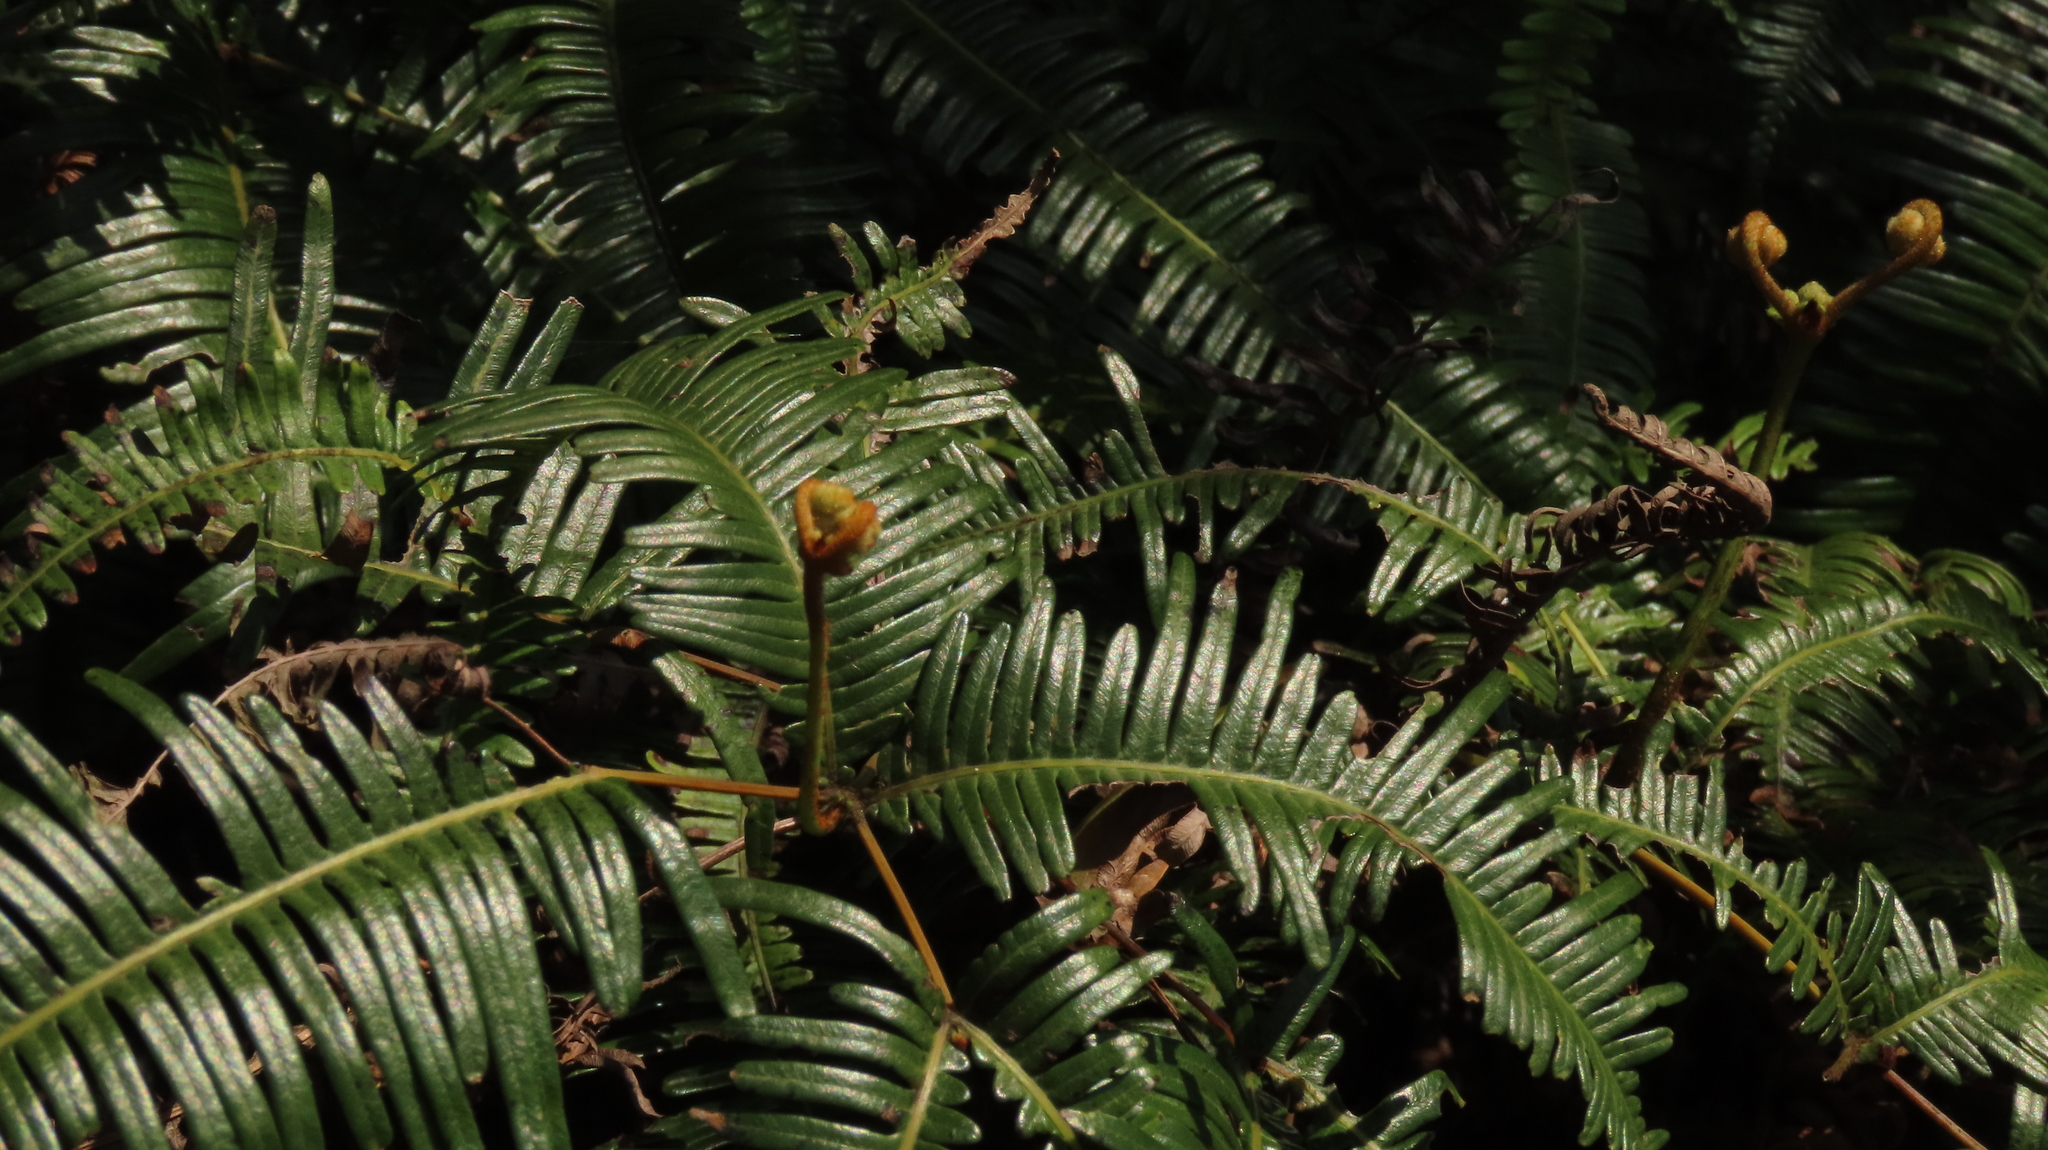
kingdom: Plantae
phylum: Tracheophyta
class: Polypodiopsida
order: Gleicheniales
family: Gleicheniaceae
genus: Dicranopteris
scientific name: Dicranopteris linearis
